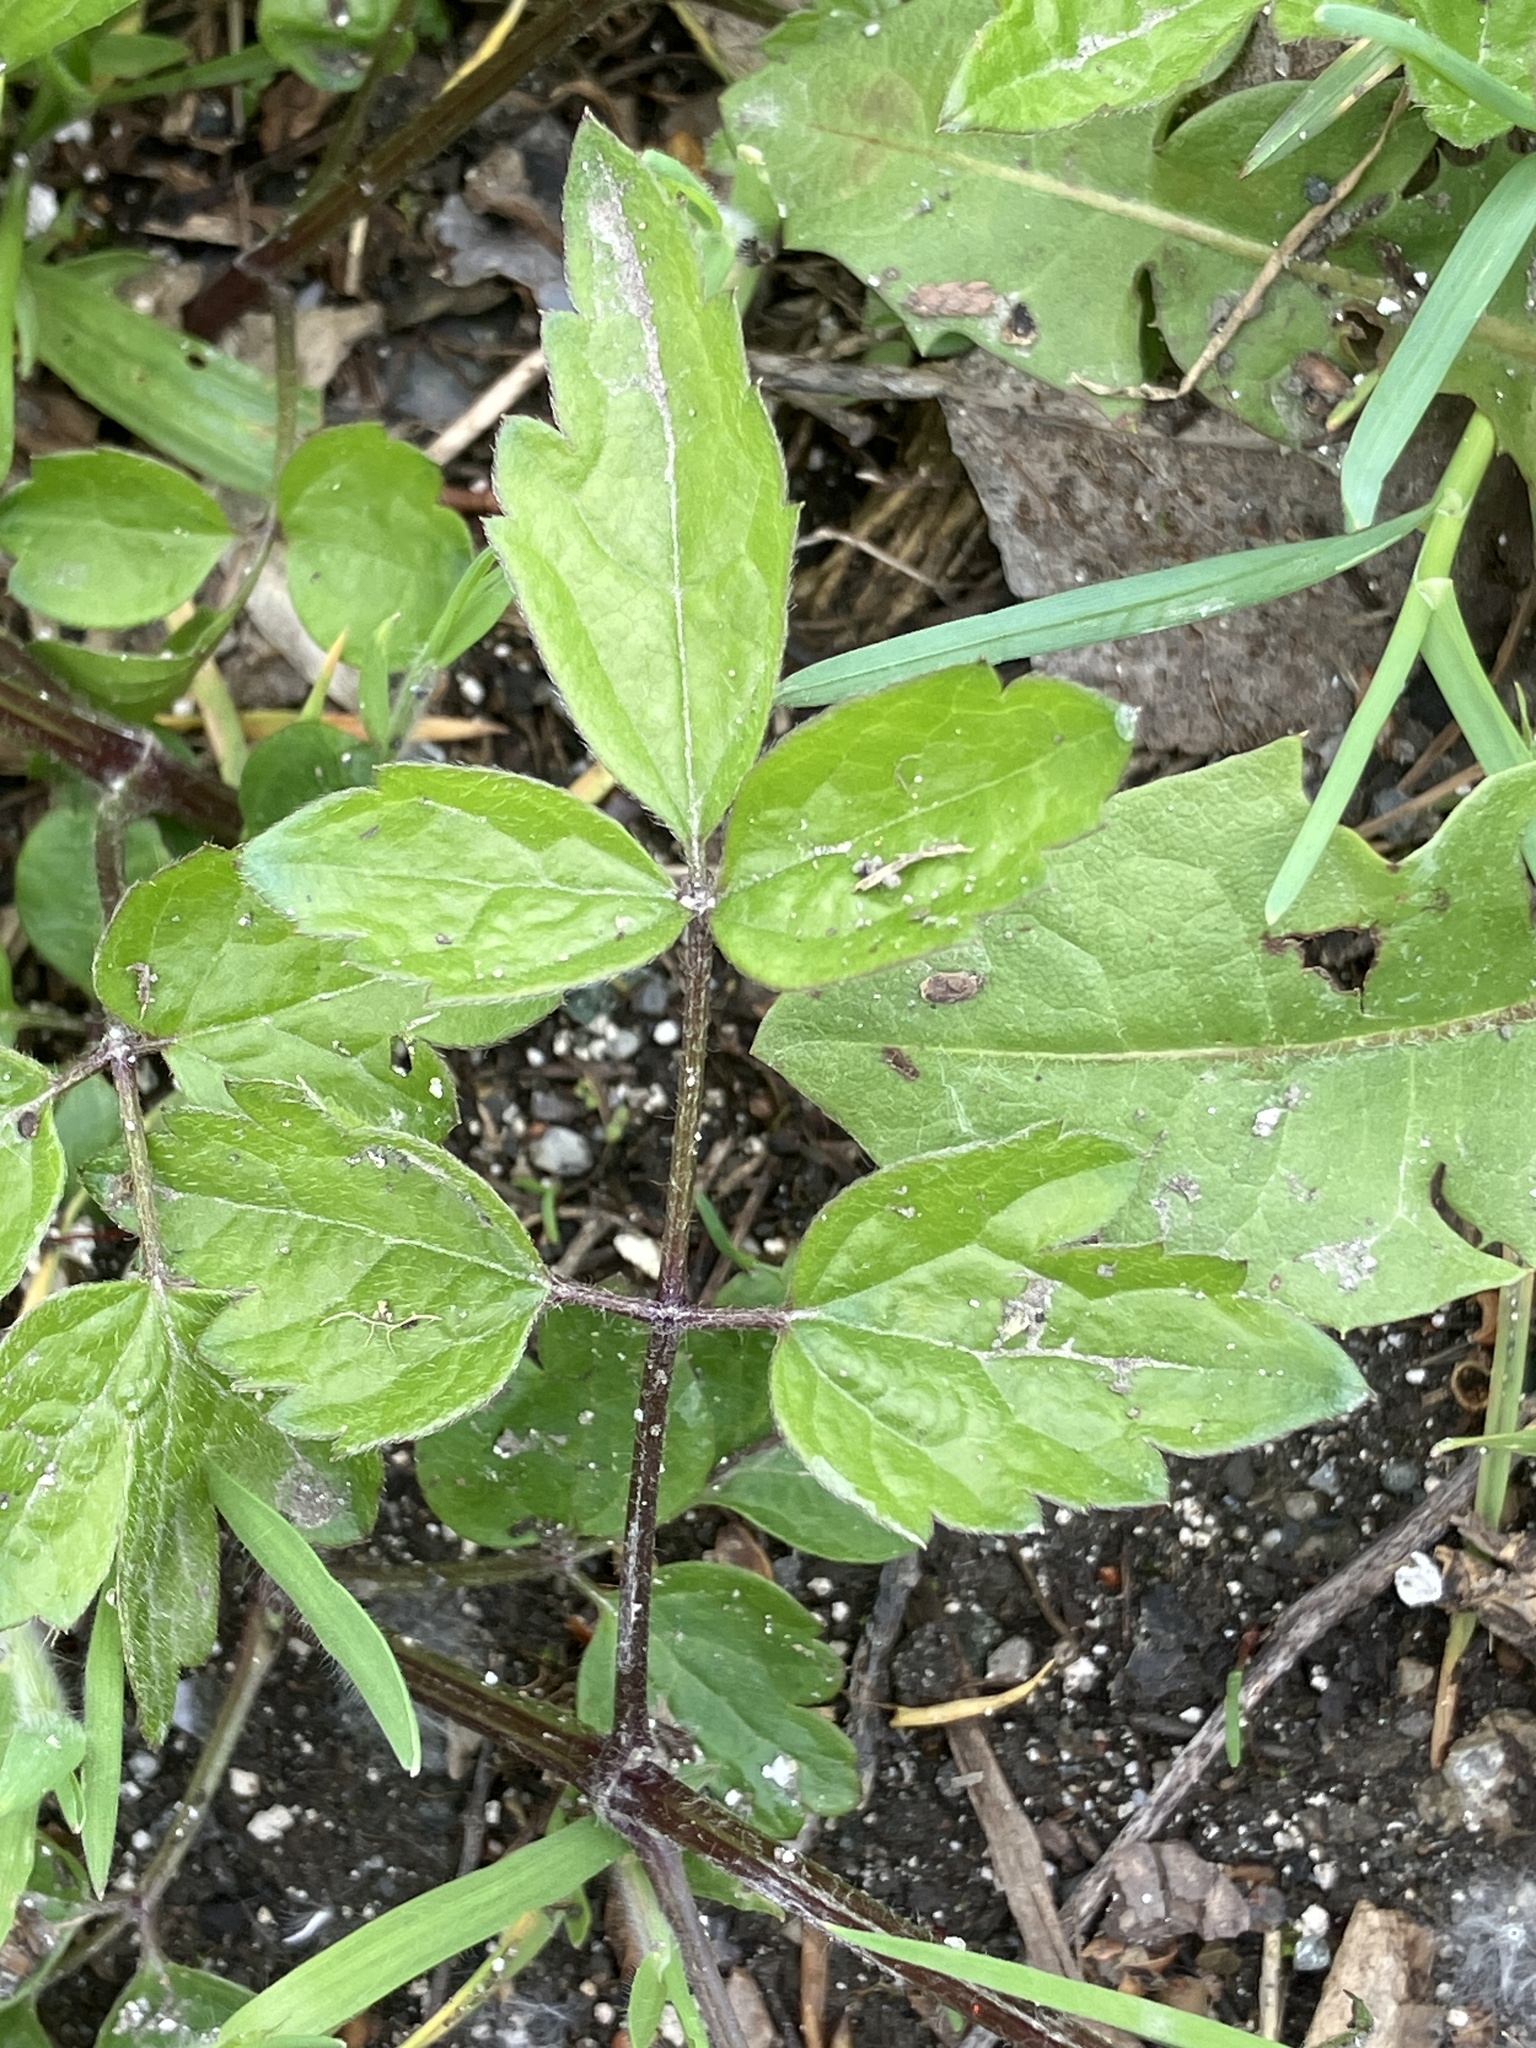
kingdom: Plantae
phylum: Tracheophyta
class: Magnoliopsida
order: Ranunculales
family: Ranunculaceae
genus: Clematis
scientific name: Clematis vitalba
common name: Evergreen clematis
